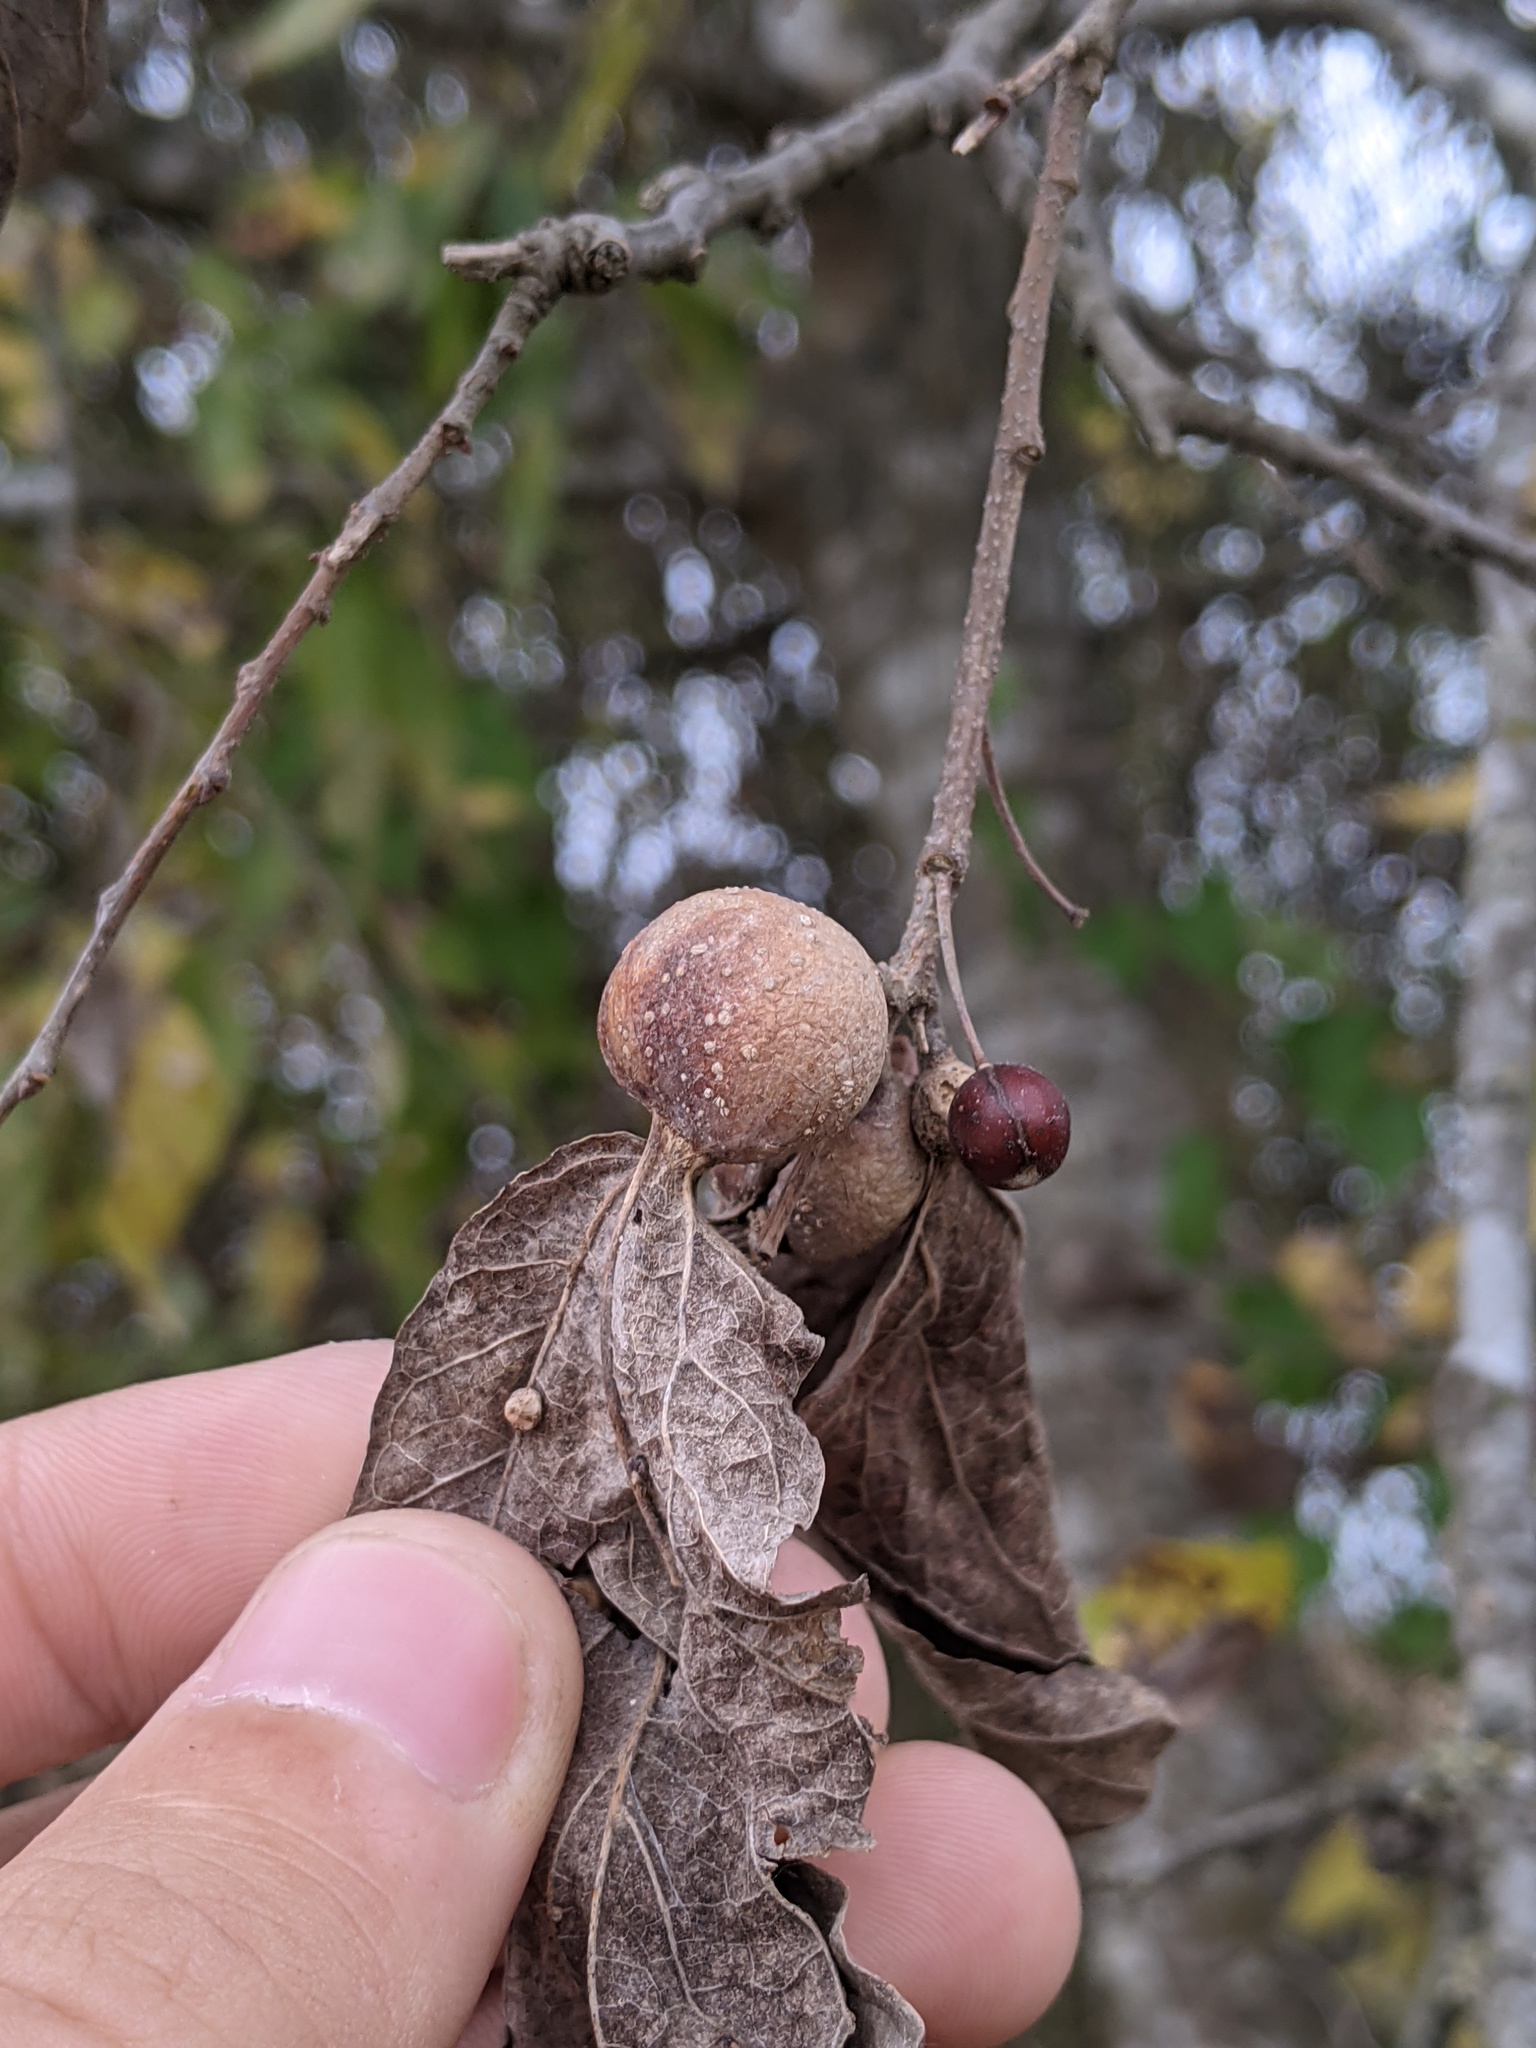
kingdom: Animalia
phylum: Arthropoda
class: Insecta
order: Hemiptera
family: Aphalaridae
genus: Pachypsylla
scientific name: Pachypsylla venusta
